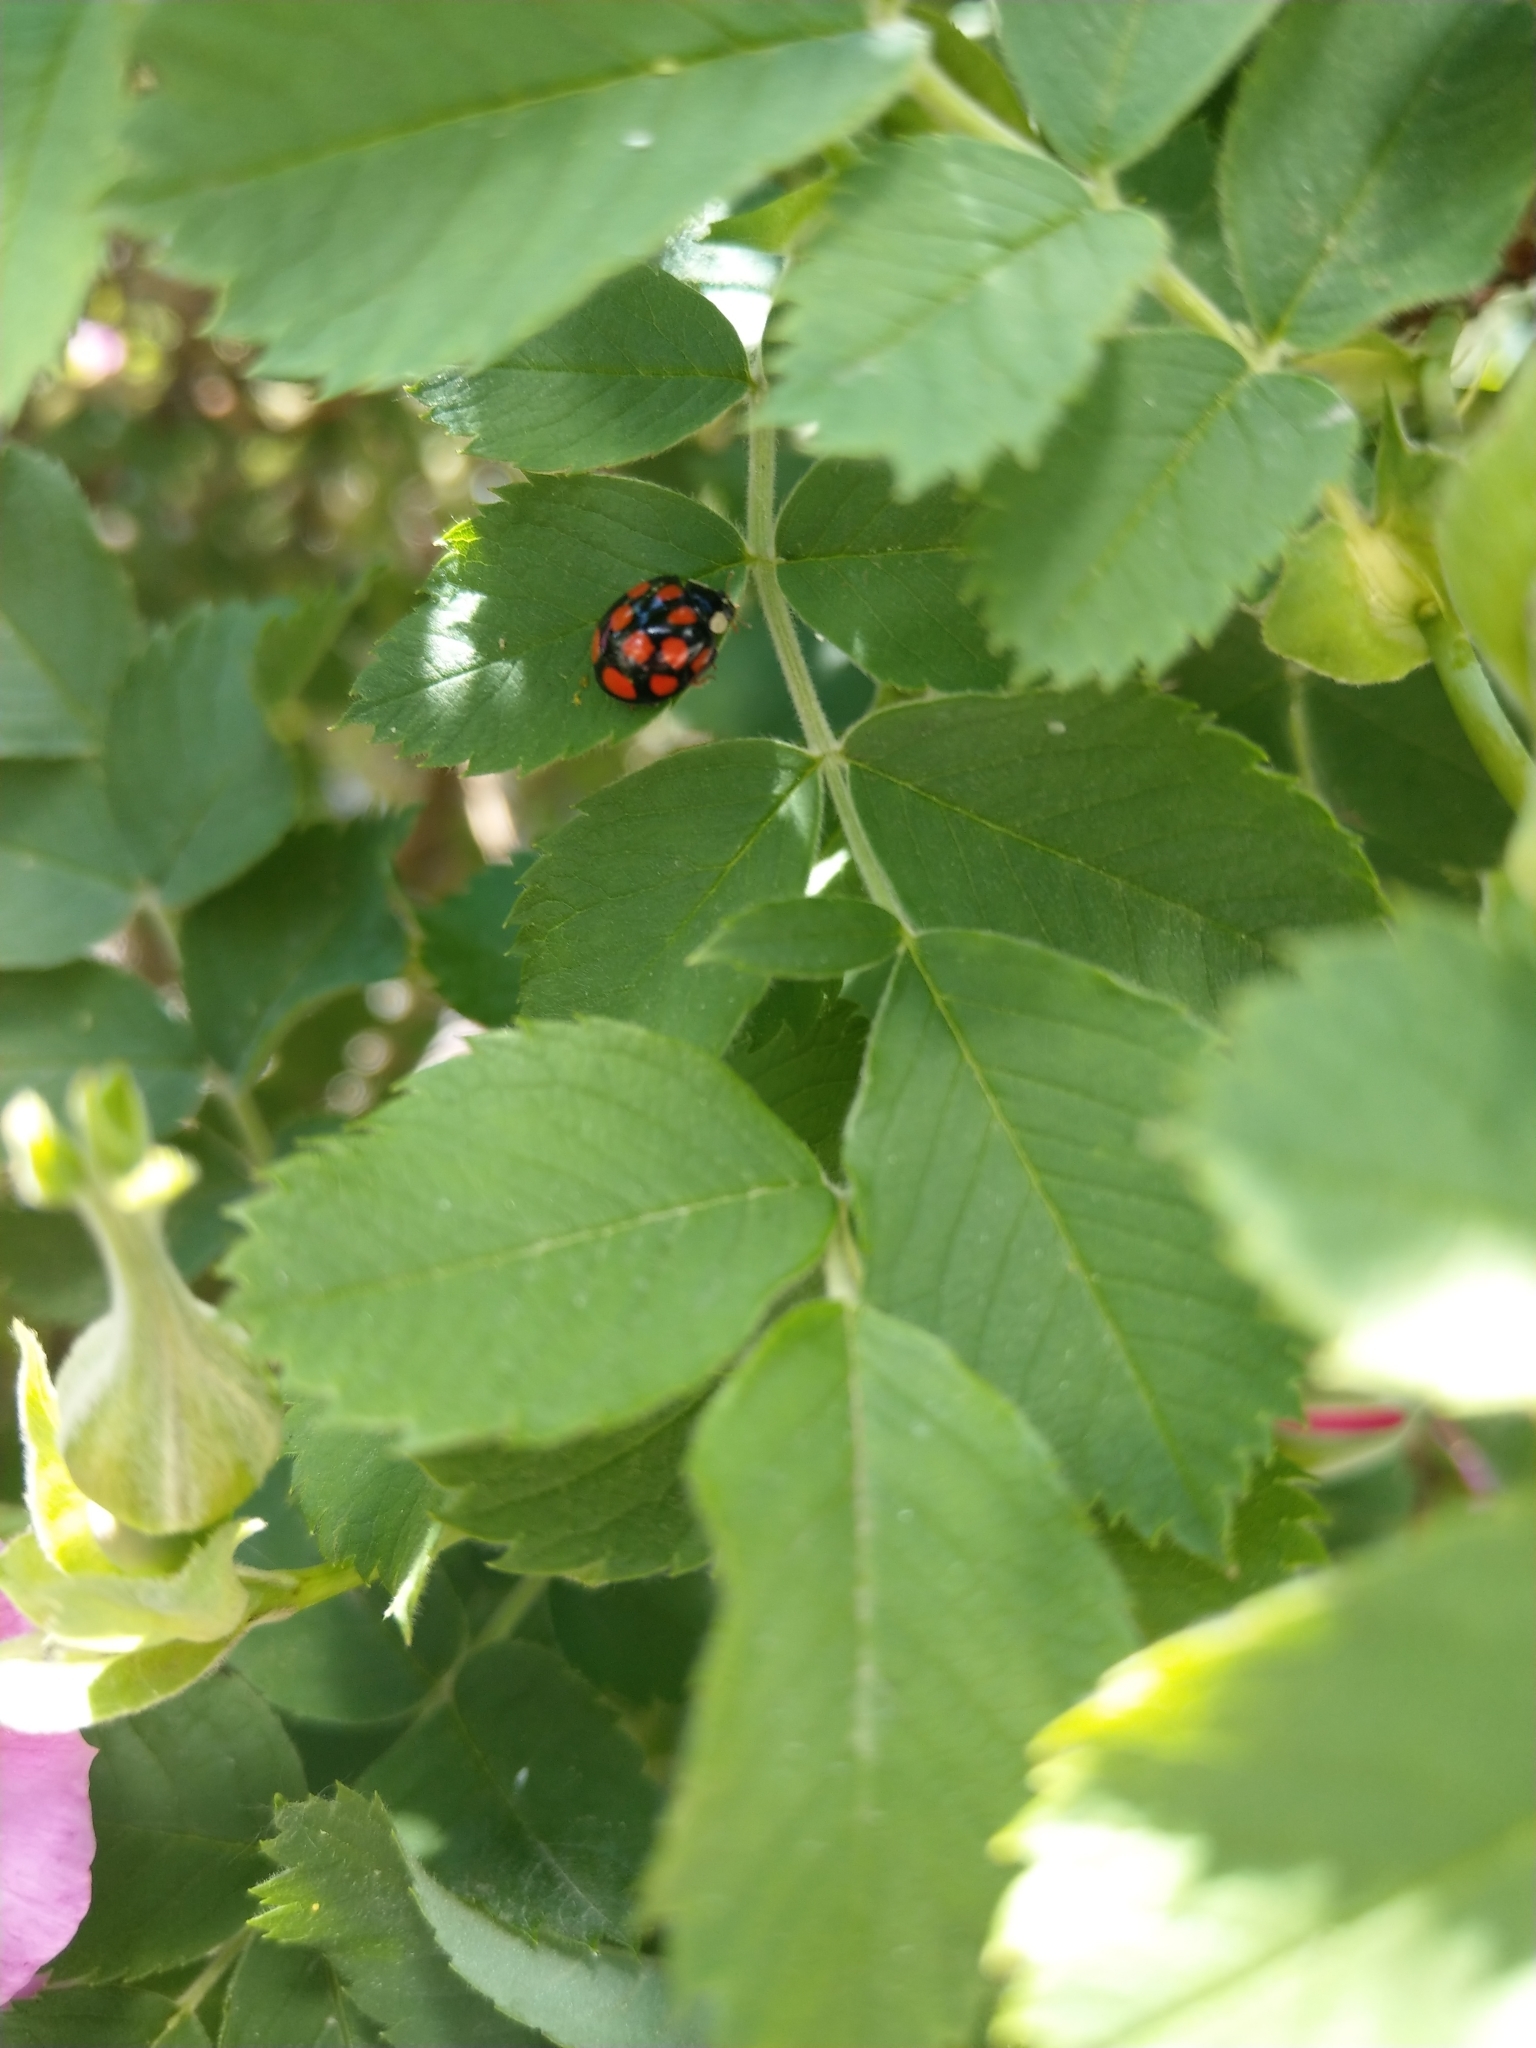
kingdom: Animalia
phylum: Arthropoda
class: Insecta
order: Coleoptera
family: Coccinellidae
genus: Harmonia
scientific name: Harmonia axyridis
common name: Harlequin ladybird
